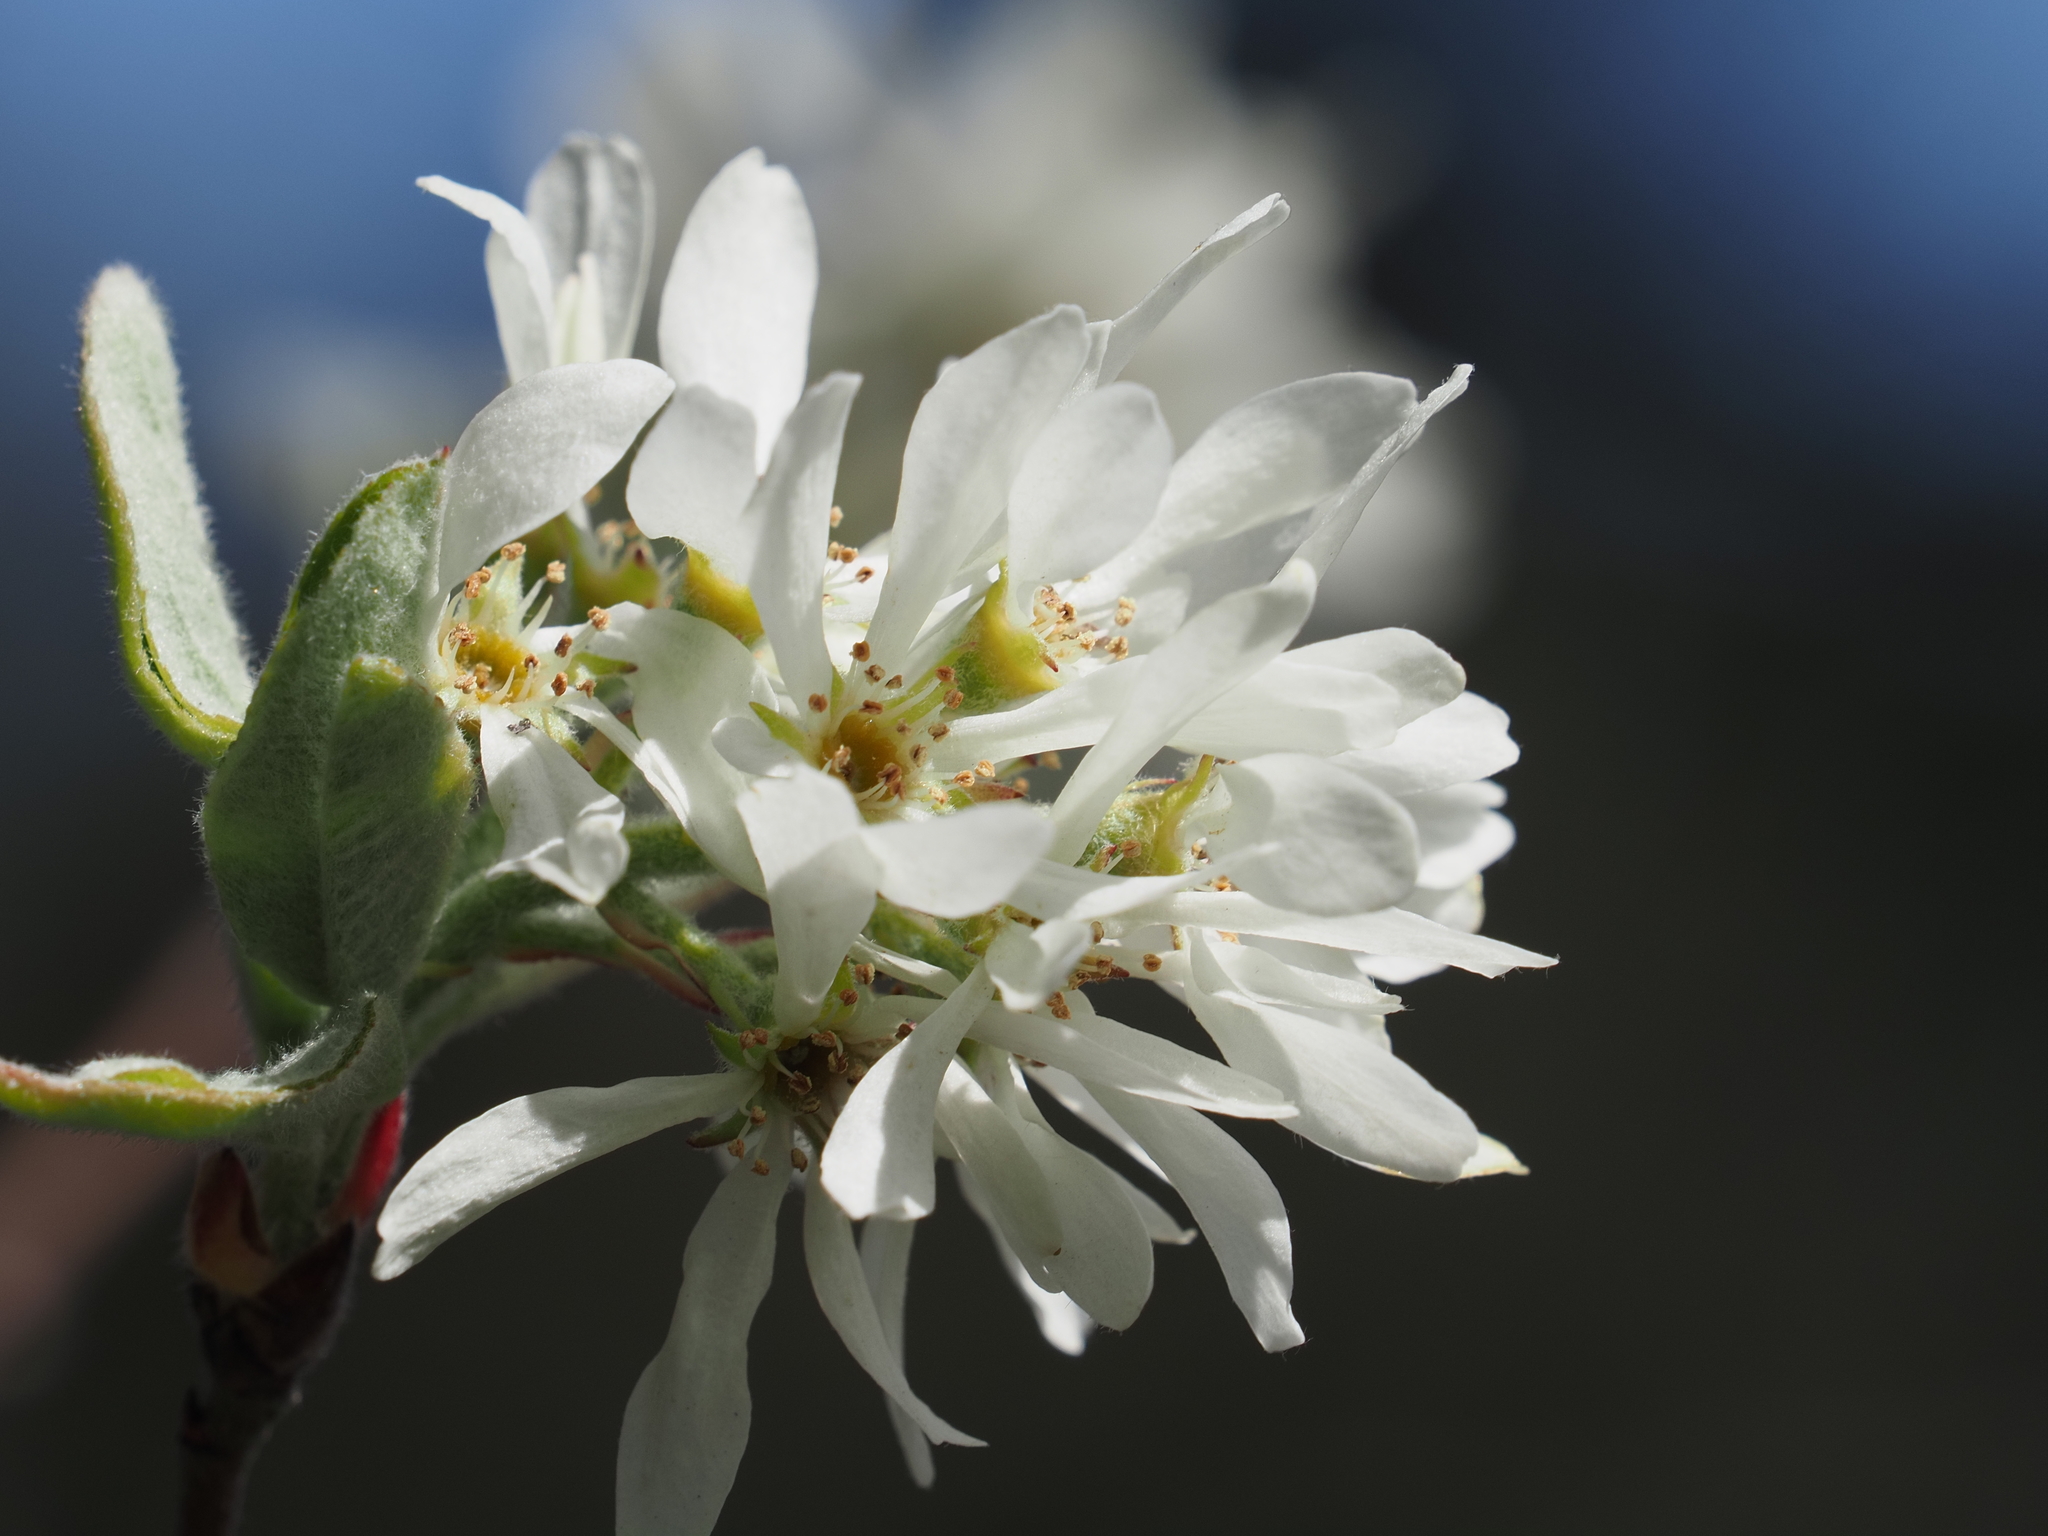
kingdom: Plantae
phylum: Tracheophyta
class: Magnoliopsida
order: Rosales
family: Rosaceae
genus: Amelanchier
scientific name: Amelanchier ovalis
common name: Serviceberry
